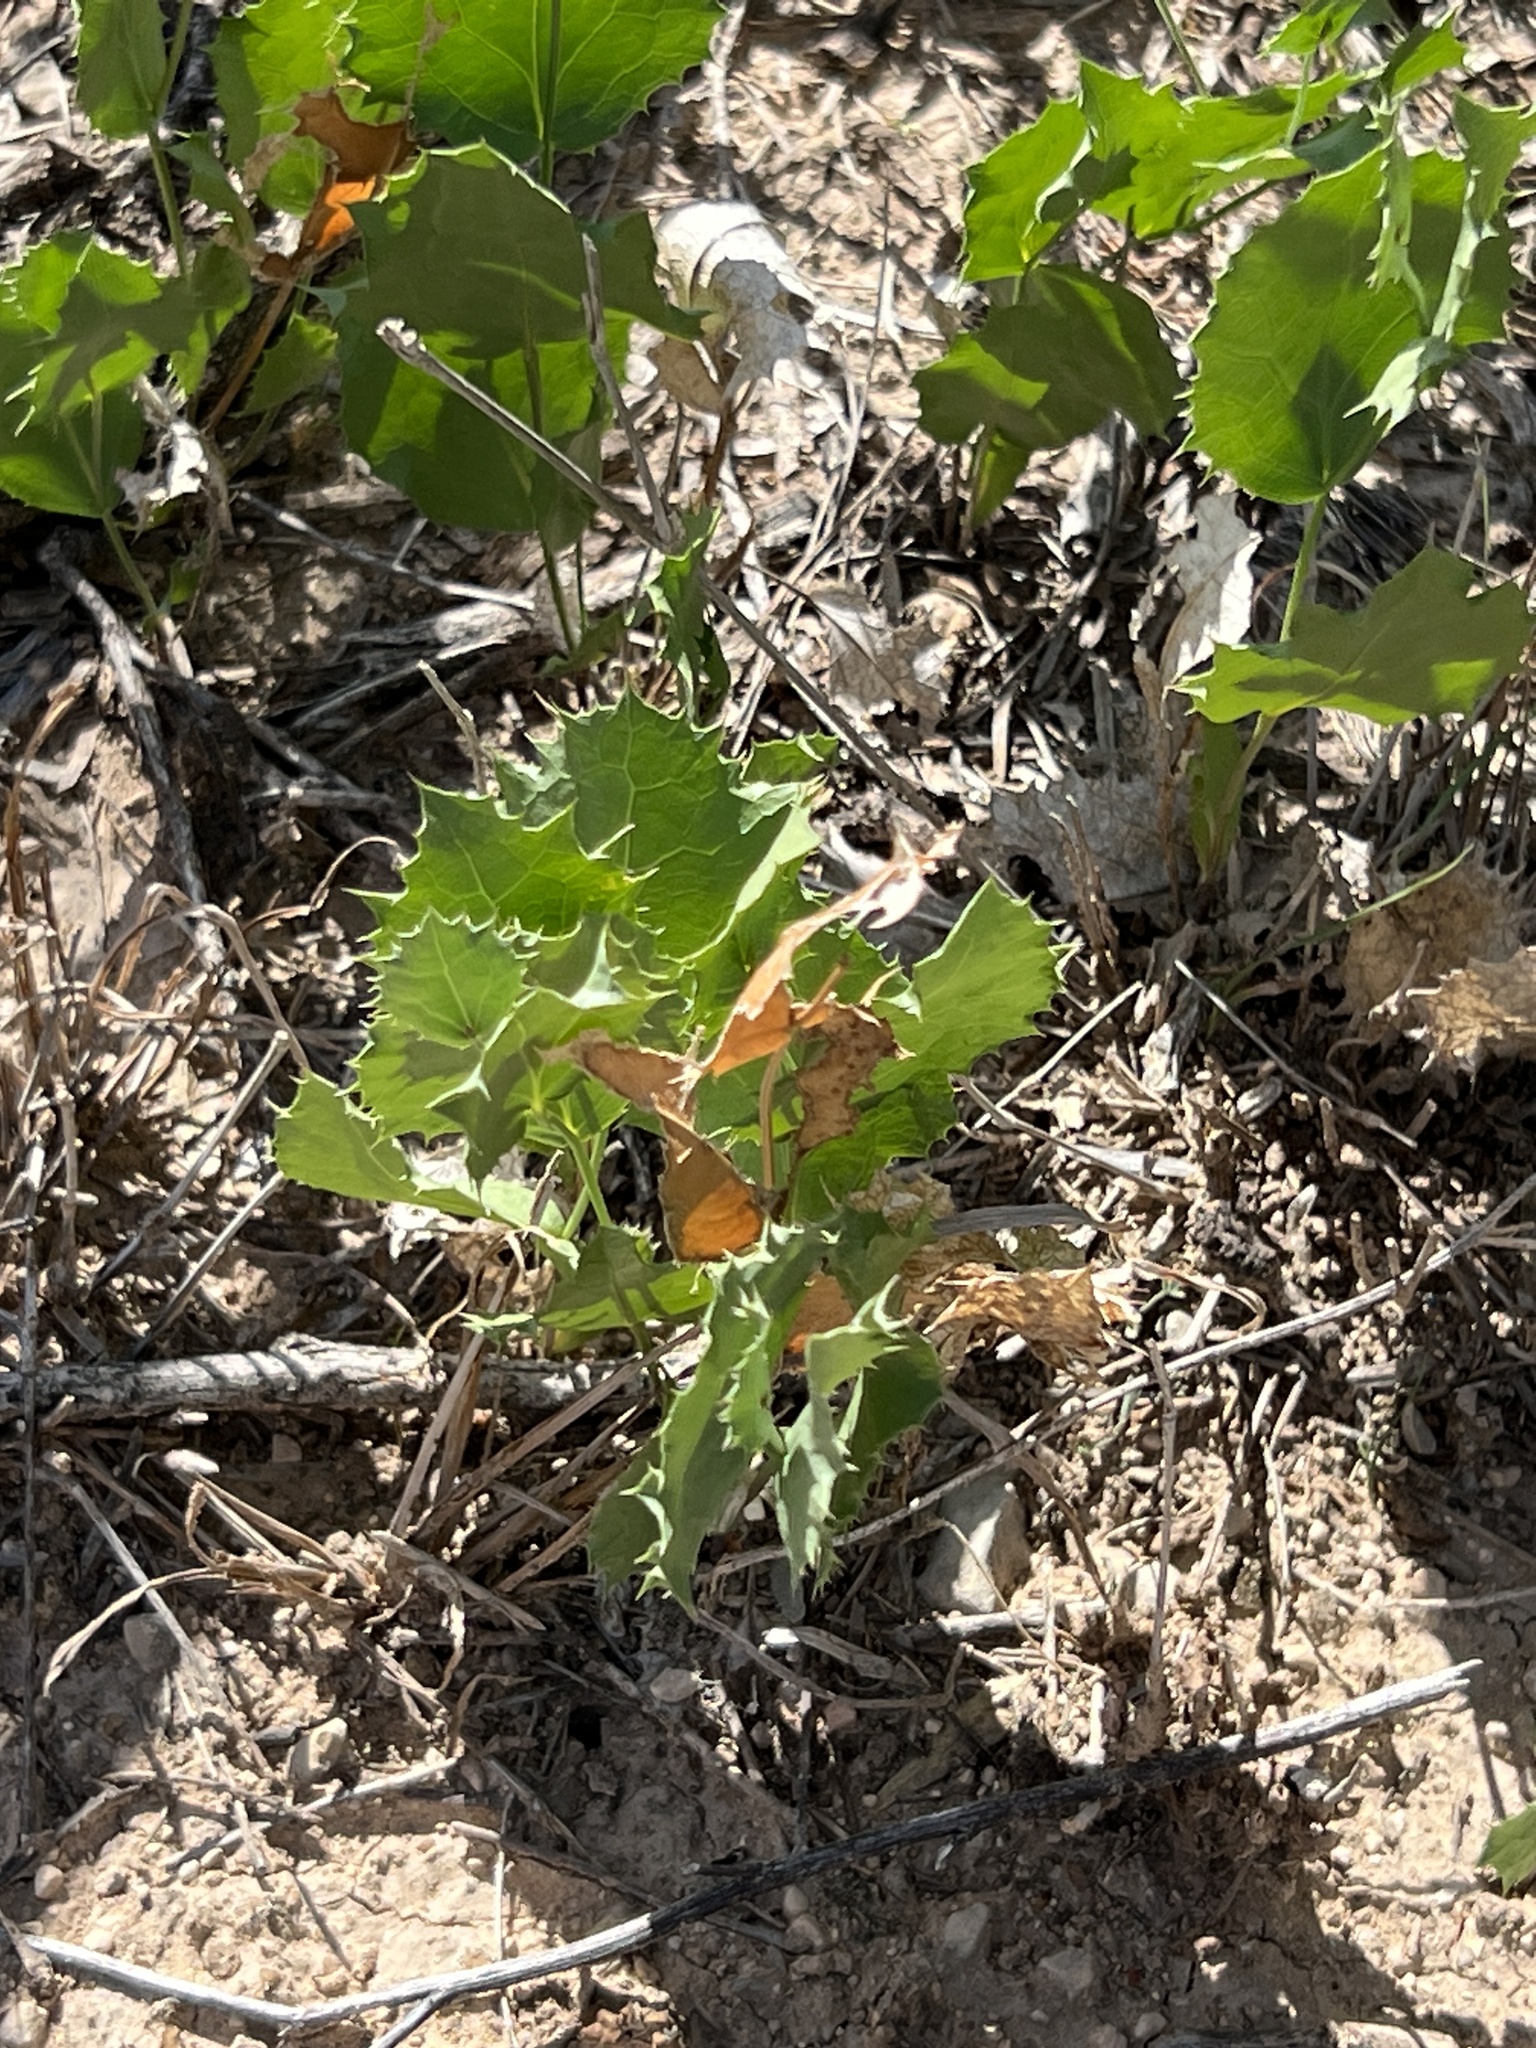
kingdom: Plantae
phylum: Tracheophyta
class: Magnoliopsida
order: Asterales
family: Asteraceae
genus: Acourtia
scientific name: Acourtia nana
